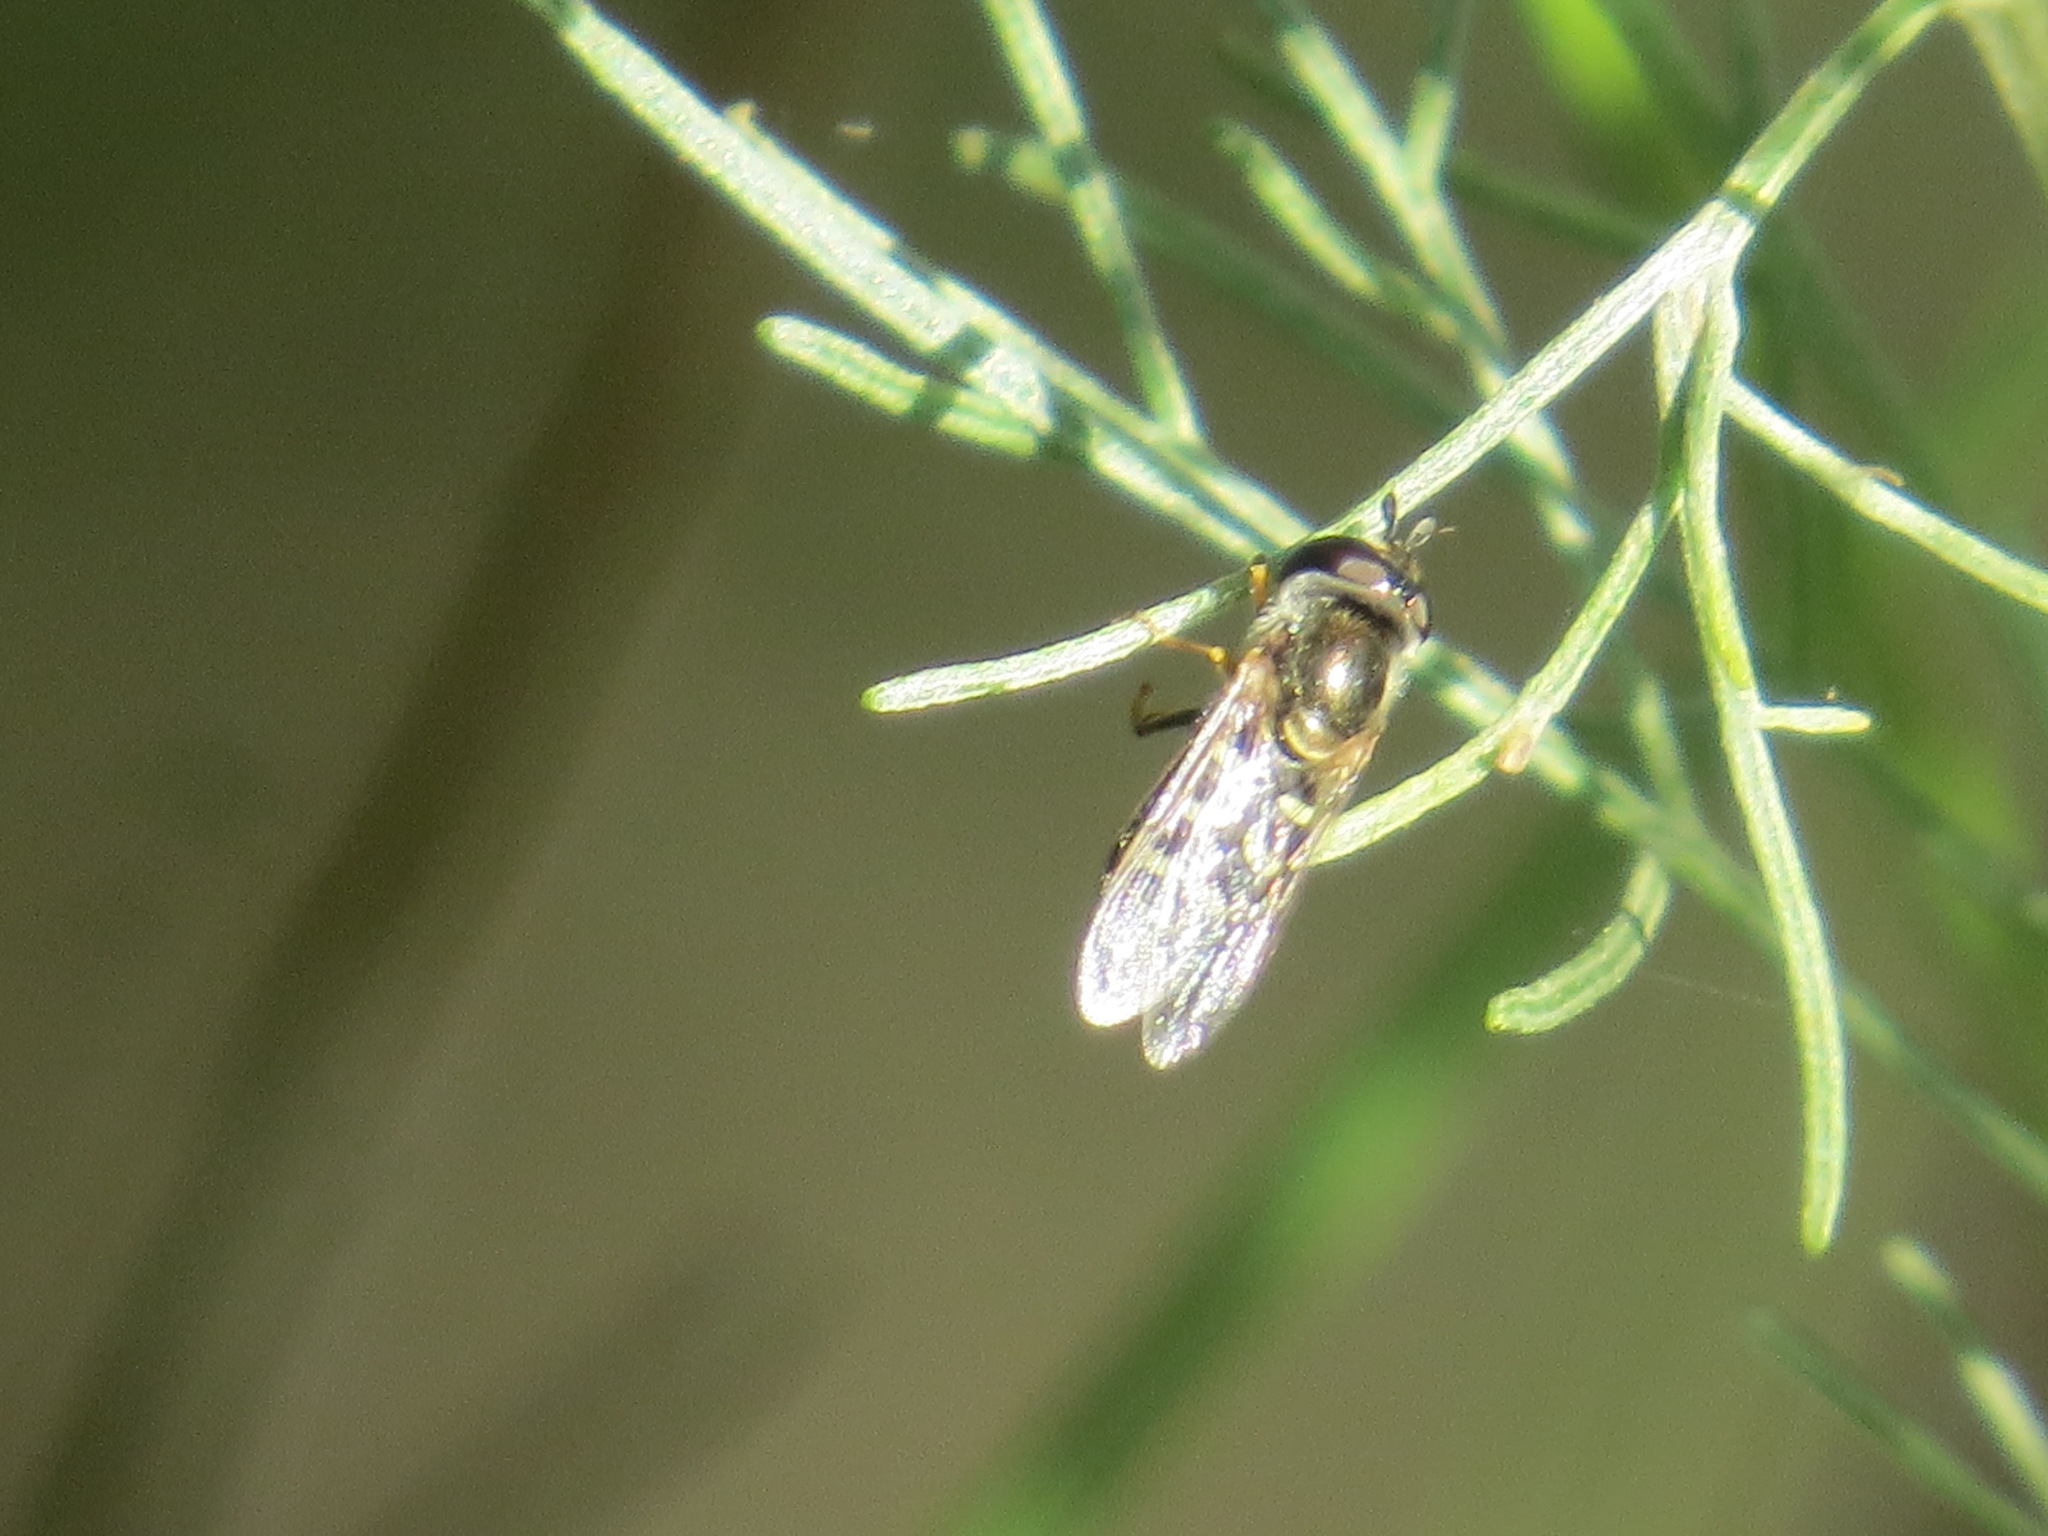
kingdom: Animalia
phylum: Arthropoda
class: Insecta
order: Diptera
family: Syrphidae
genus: Eupeodes
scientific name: Eupeodes volucris
